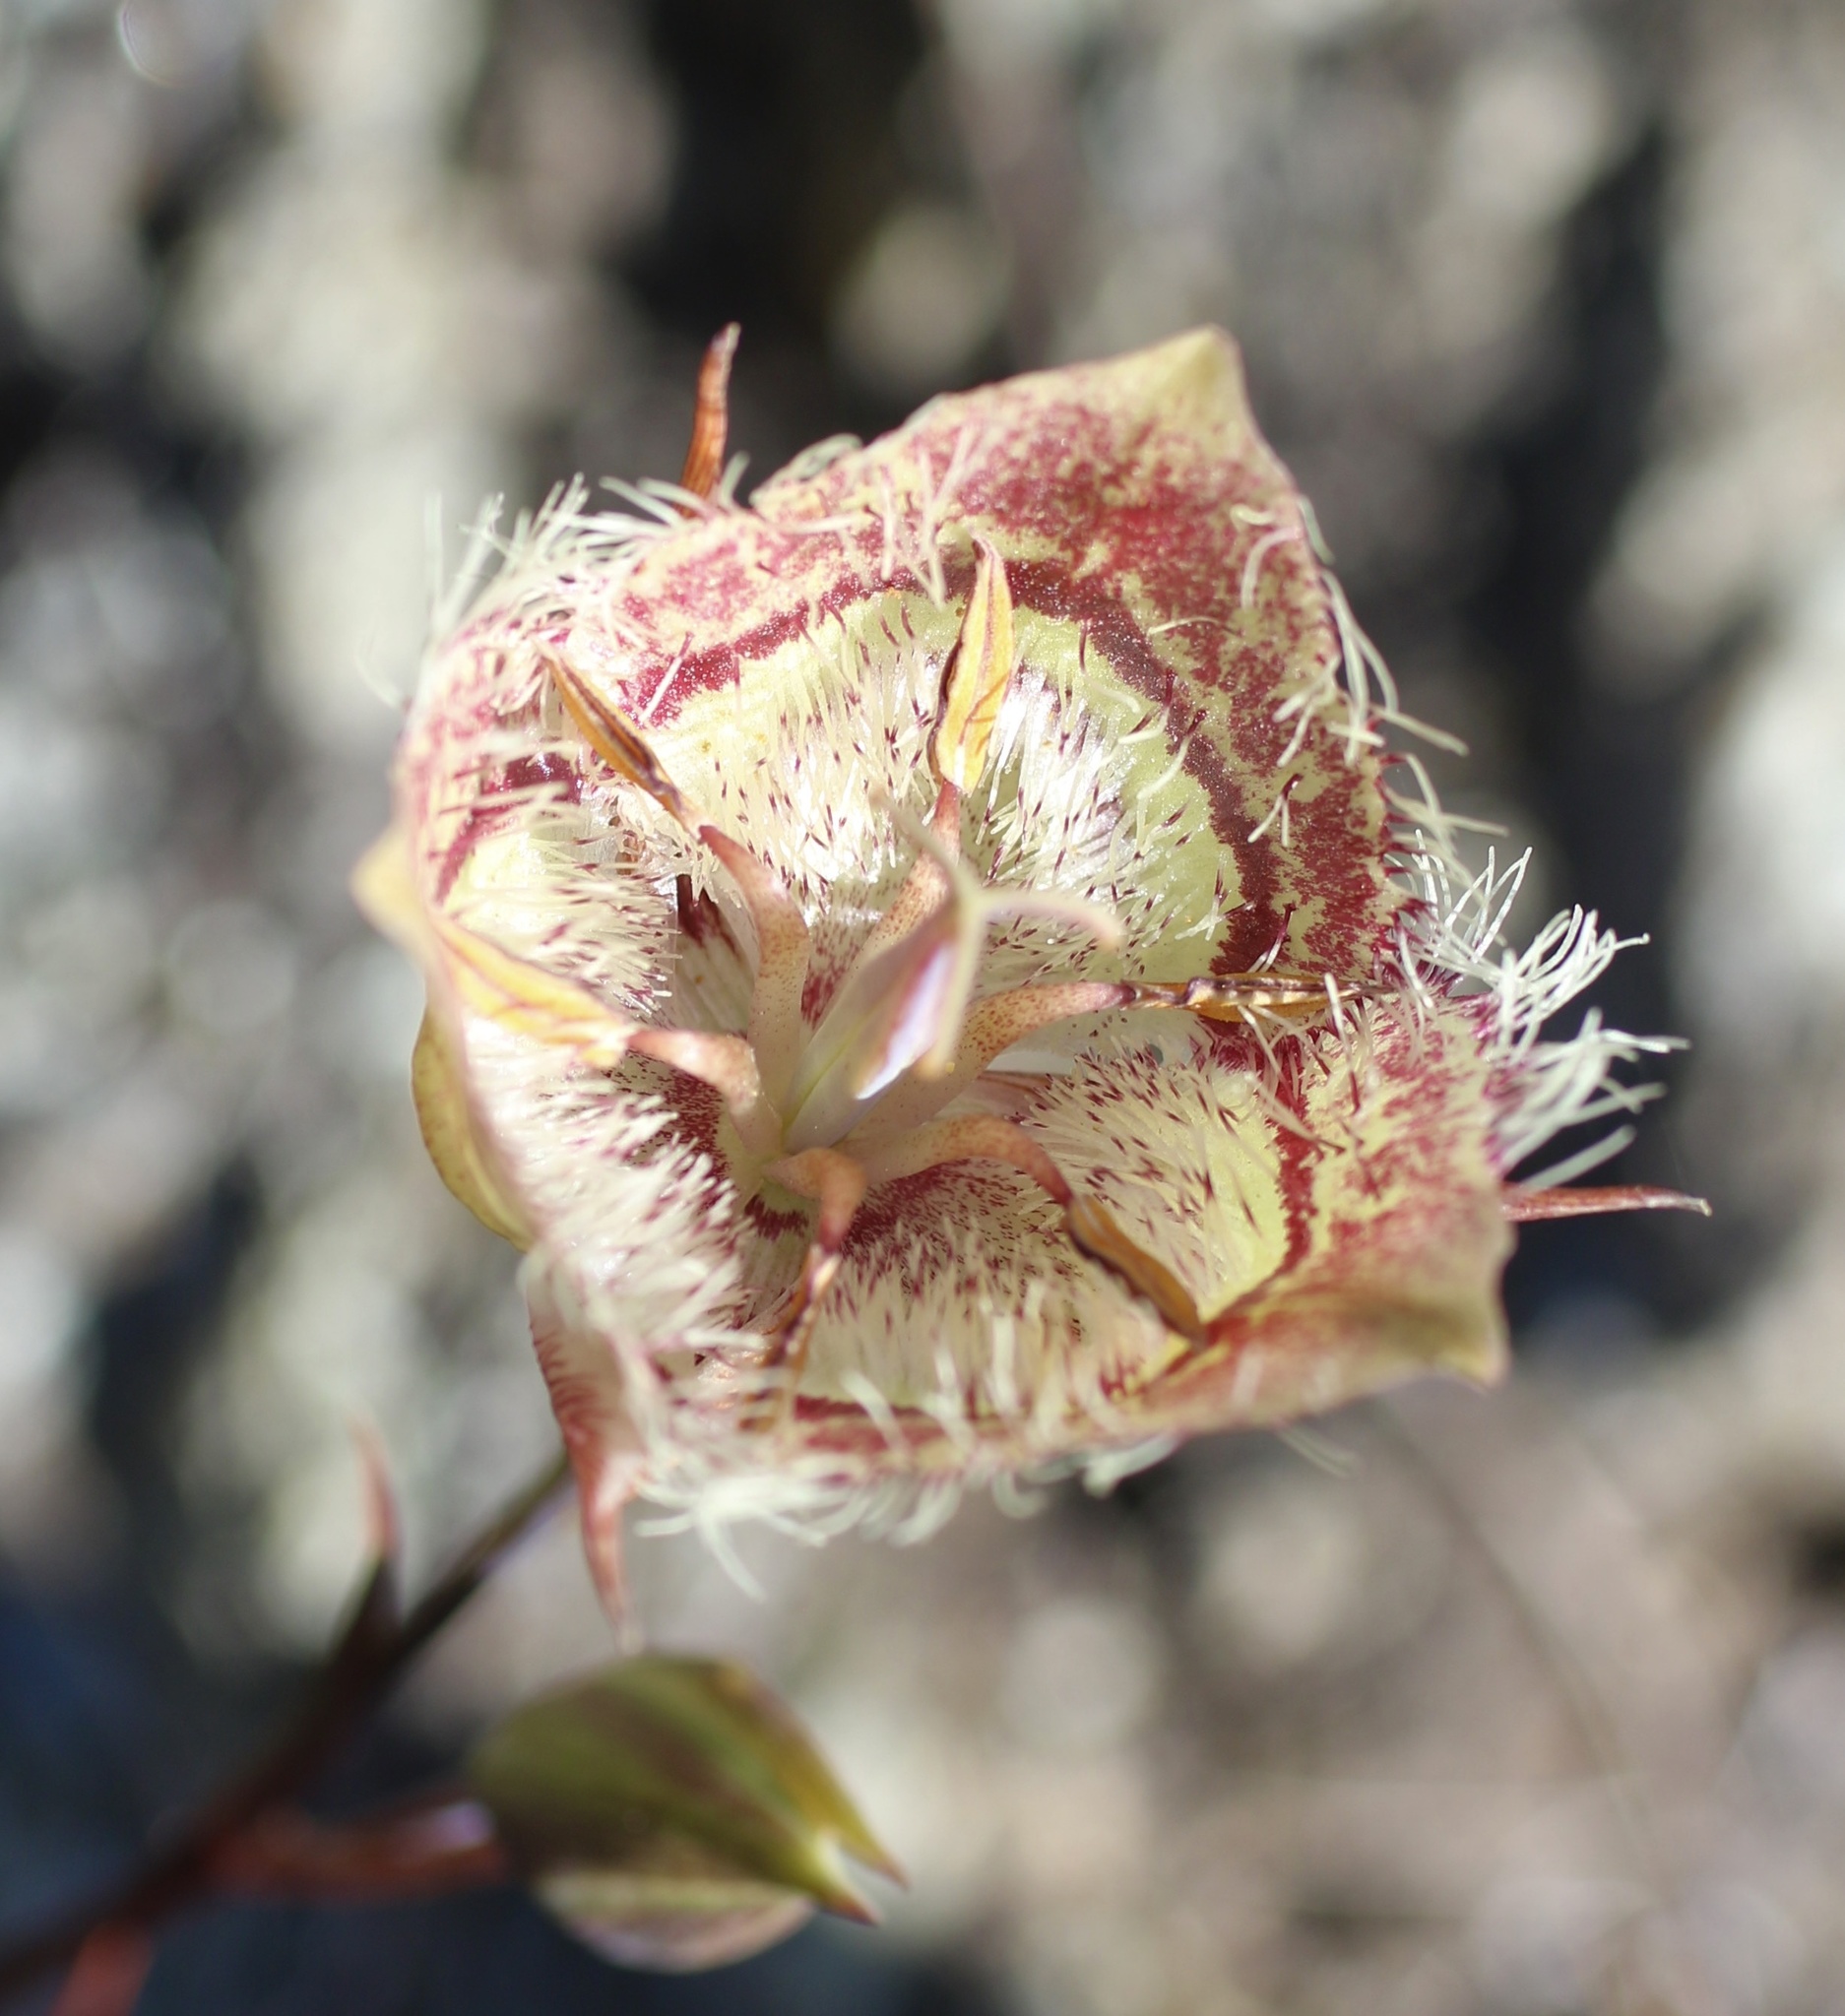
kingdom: Plantae
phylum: Tracheophyta
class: Liliopsida
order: Liliales
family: Liliaceae
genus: Calochortus
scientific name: Calochortus tiburonensis
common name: Tiburon mariposa-lily
